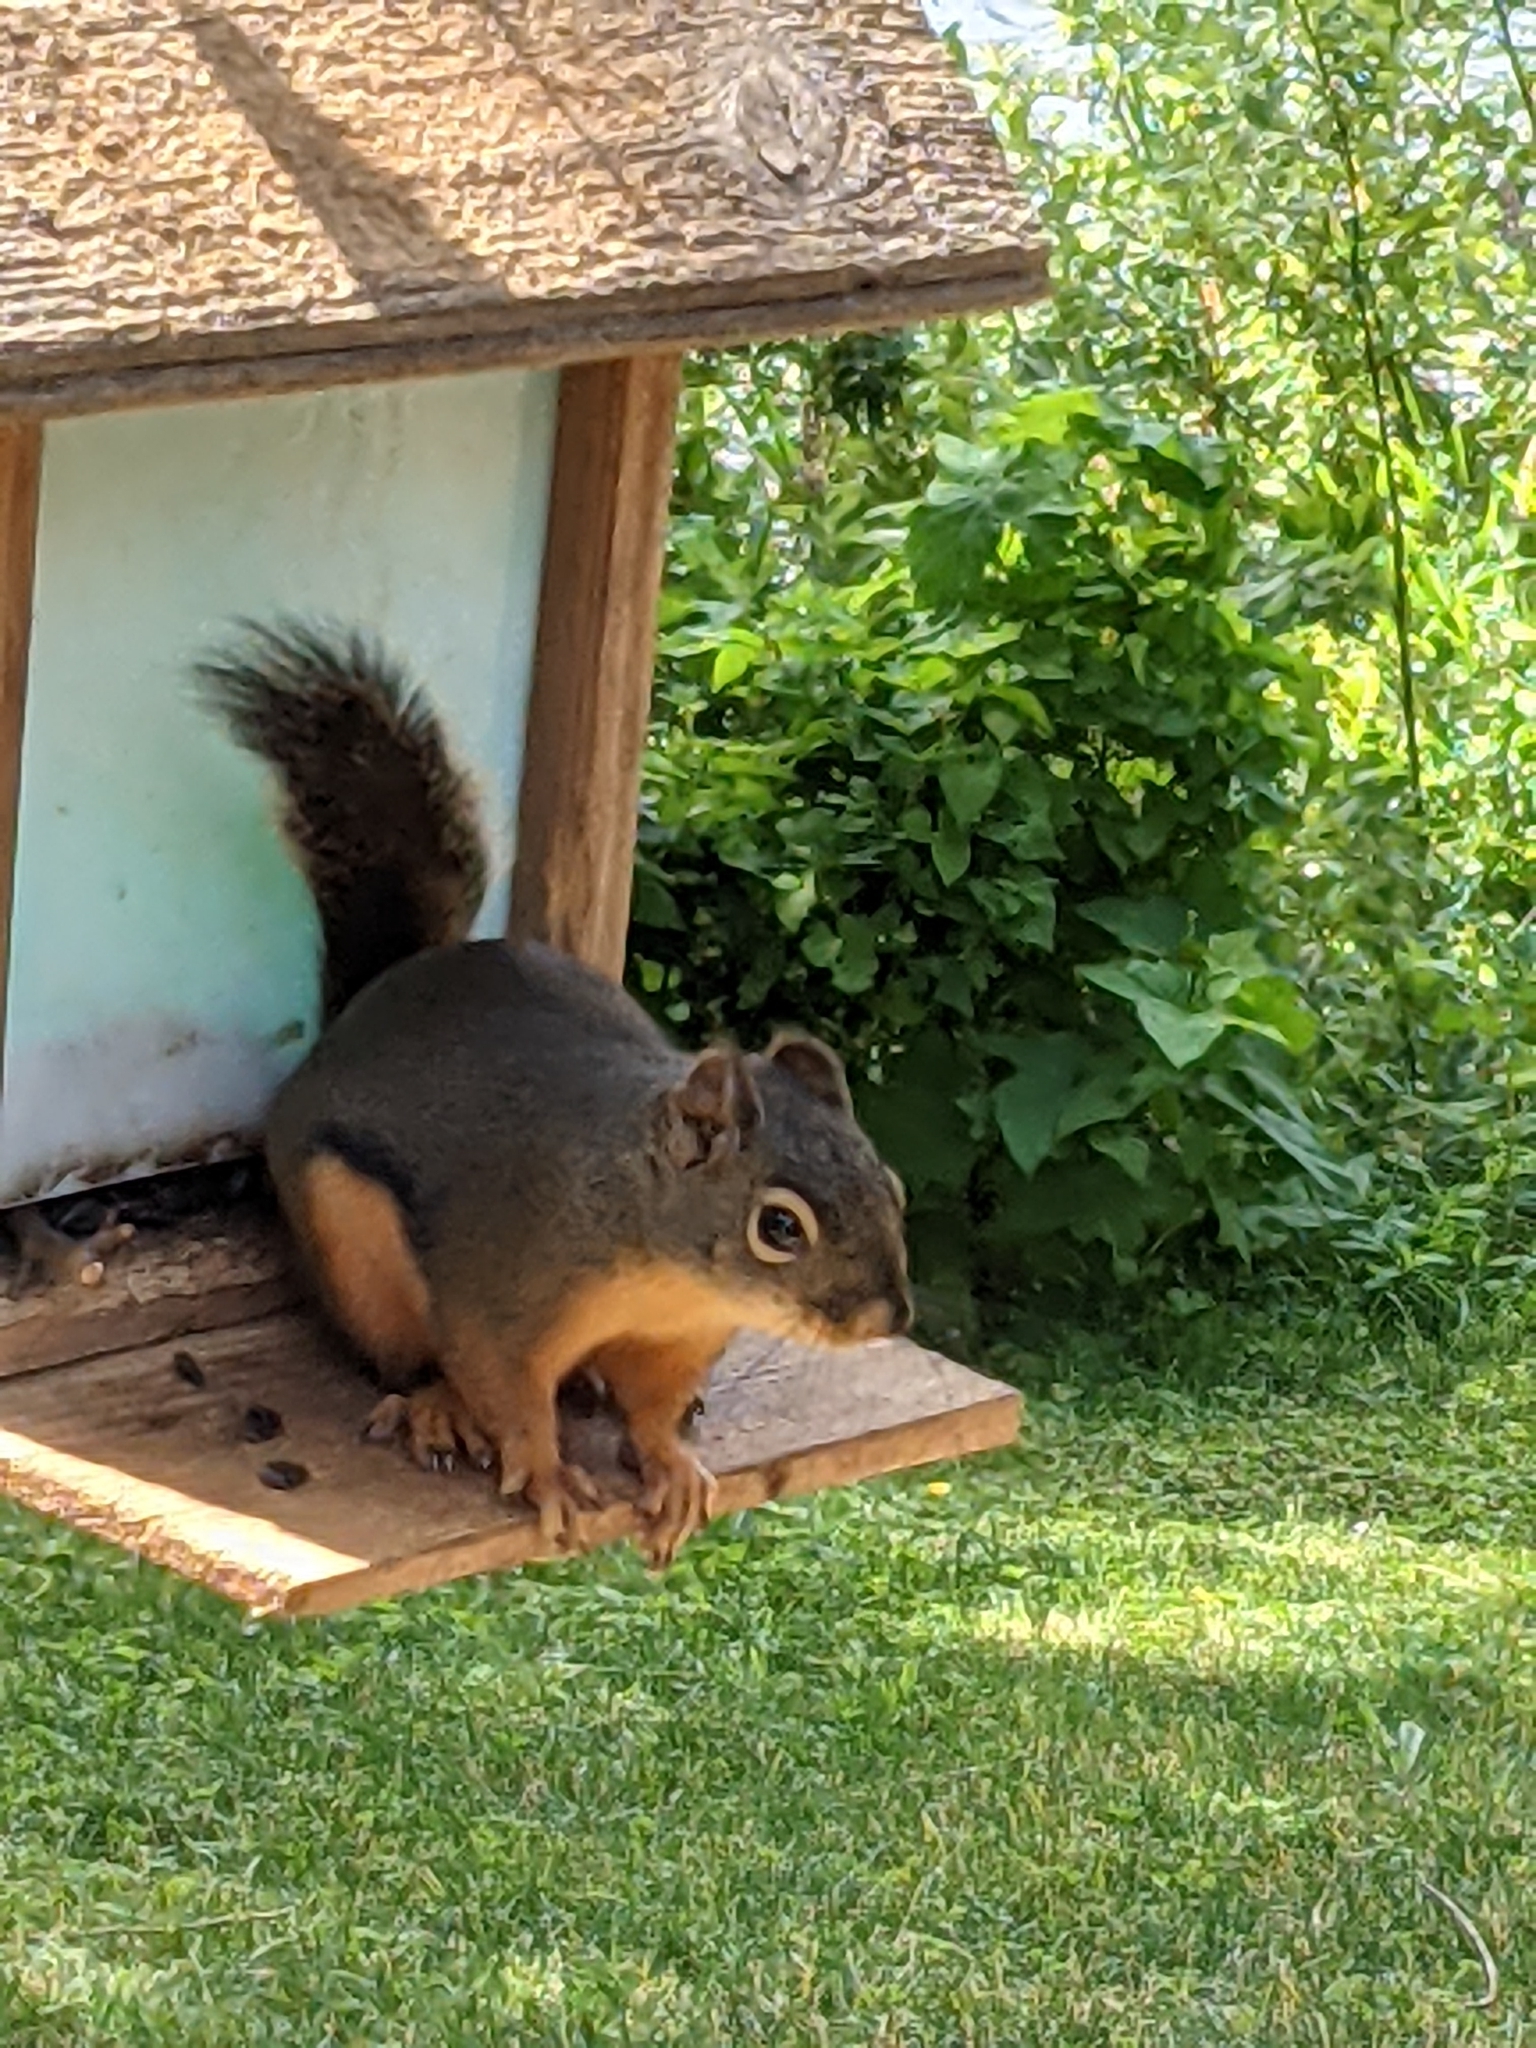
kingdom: Animalia
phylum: Chordata
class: Mammalia
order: Rodentia
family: Sciuridae
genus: Tamiasciurus
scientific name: Tamiasciurus douglasii
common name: Douglas's squirrel
